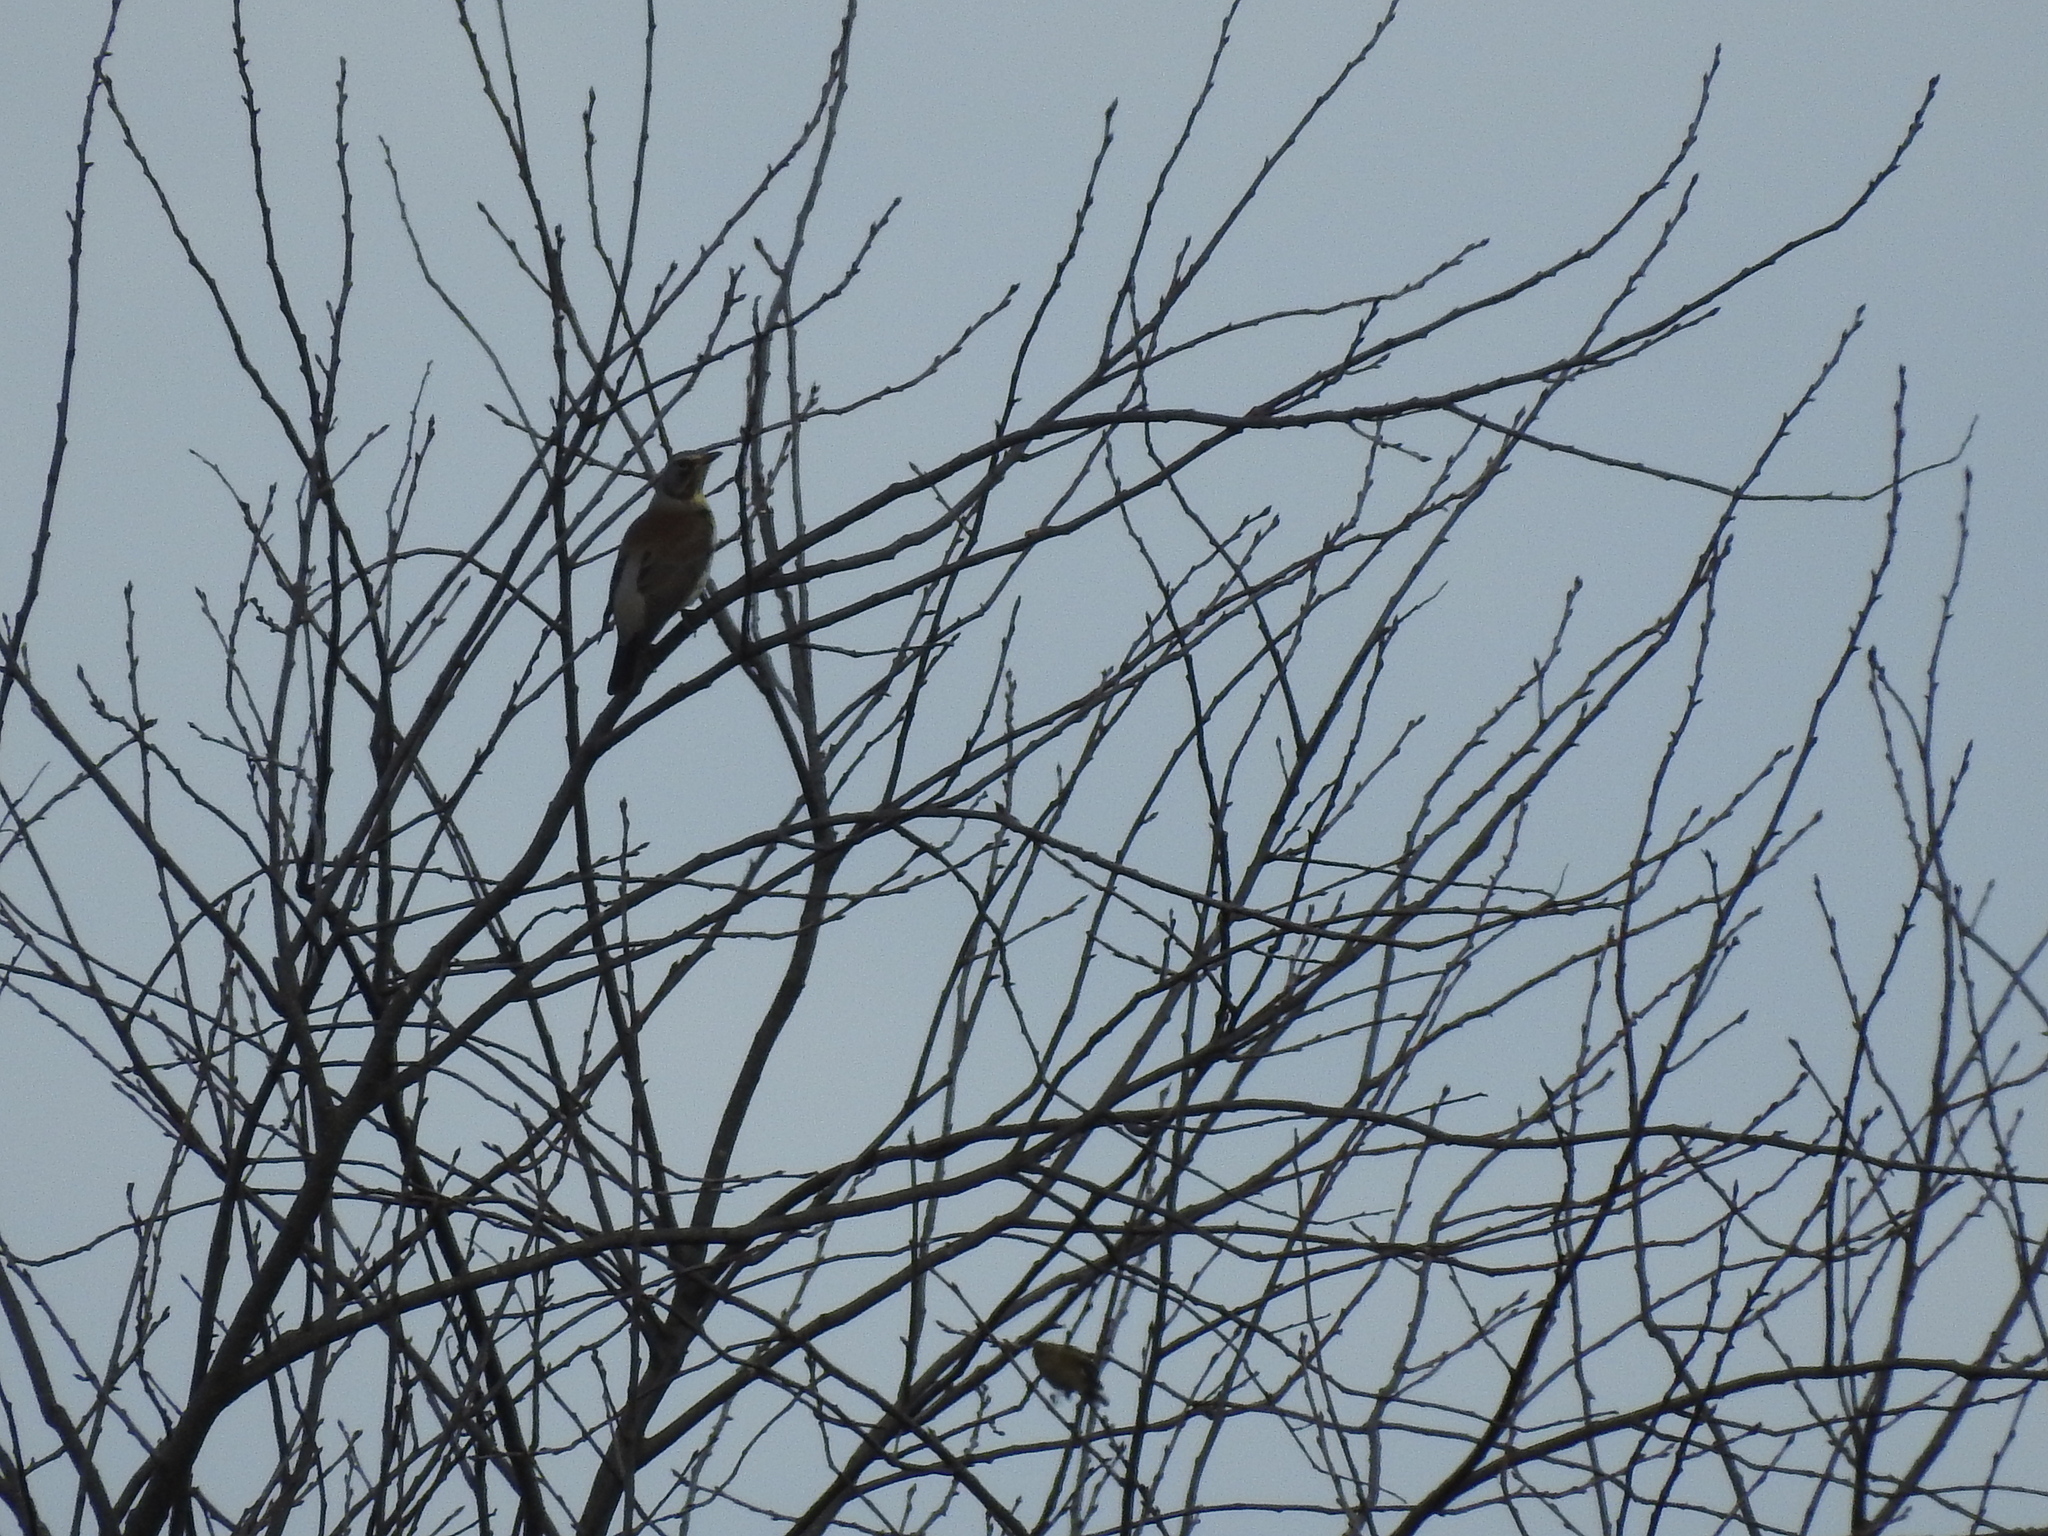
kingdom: Animalia
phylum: Chordata
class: Aves
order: Passeriformes
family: Turdidae
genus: Turdus
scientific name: Turdus pilaris
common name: Fieldfare
